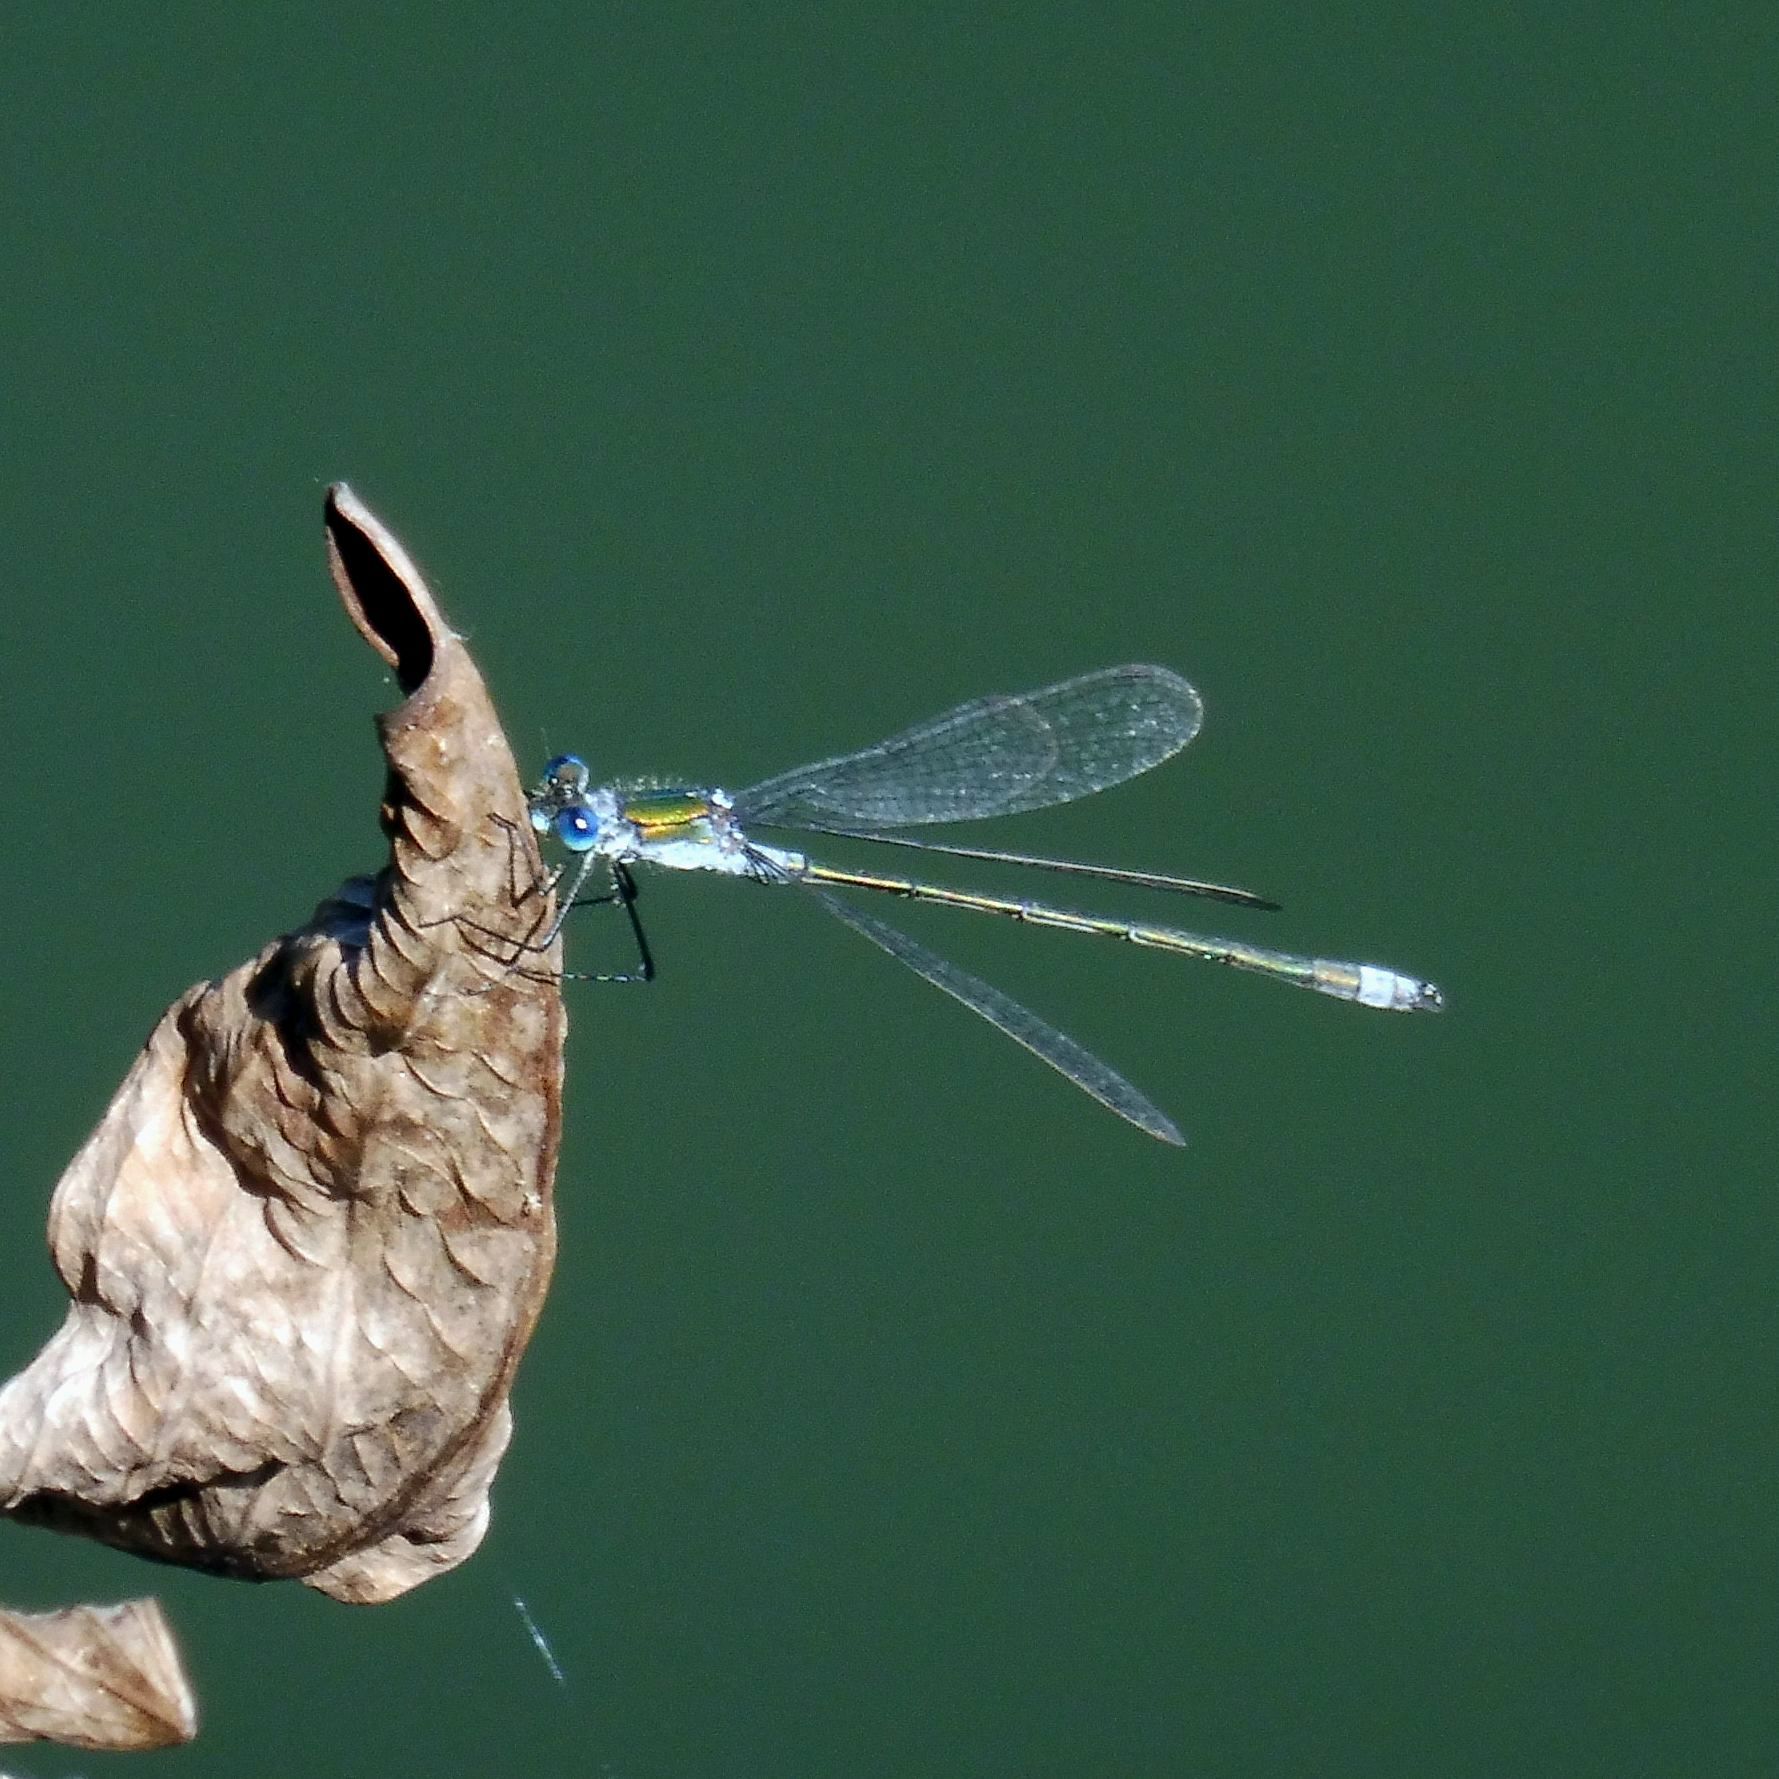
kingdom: Animalia
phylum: Arthropoda
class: Insecta
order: Odonata
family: Lestidae
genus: Lestes
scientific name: Lestes sponsa
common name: Common spreadwing
